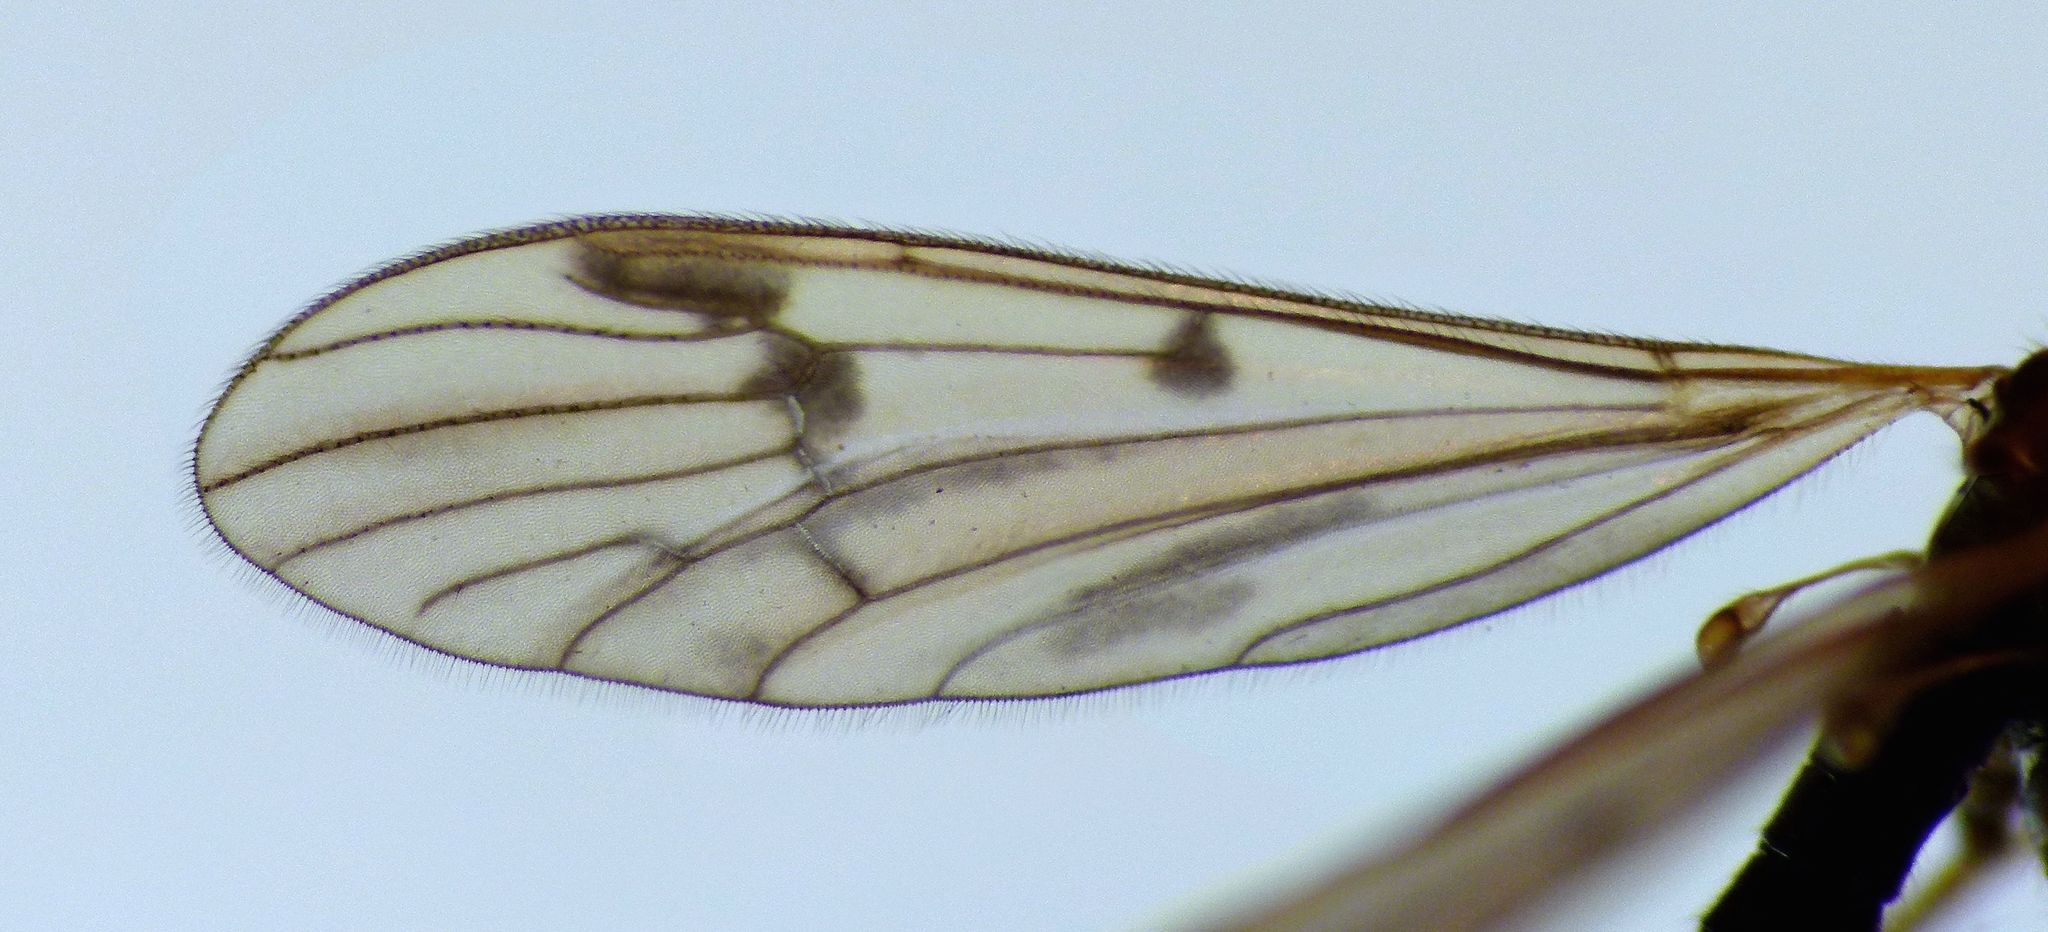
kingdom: Animalia
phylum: Arthropoda
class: Insecta
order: Diptera
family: Limoniidae
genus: Gynoplistia
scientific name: Gynoplistia otagana
